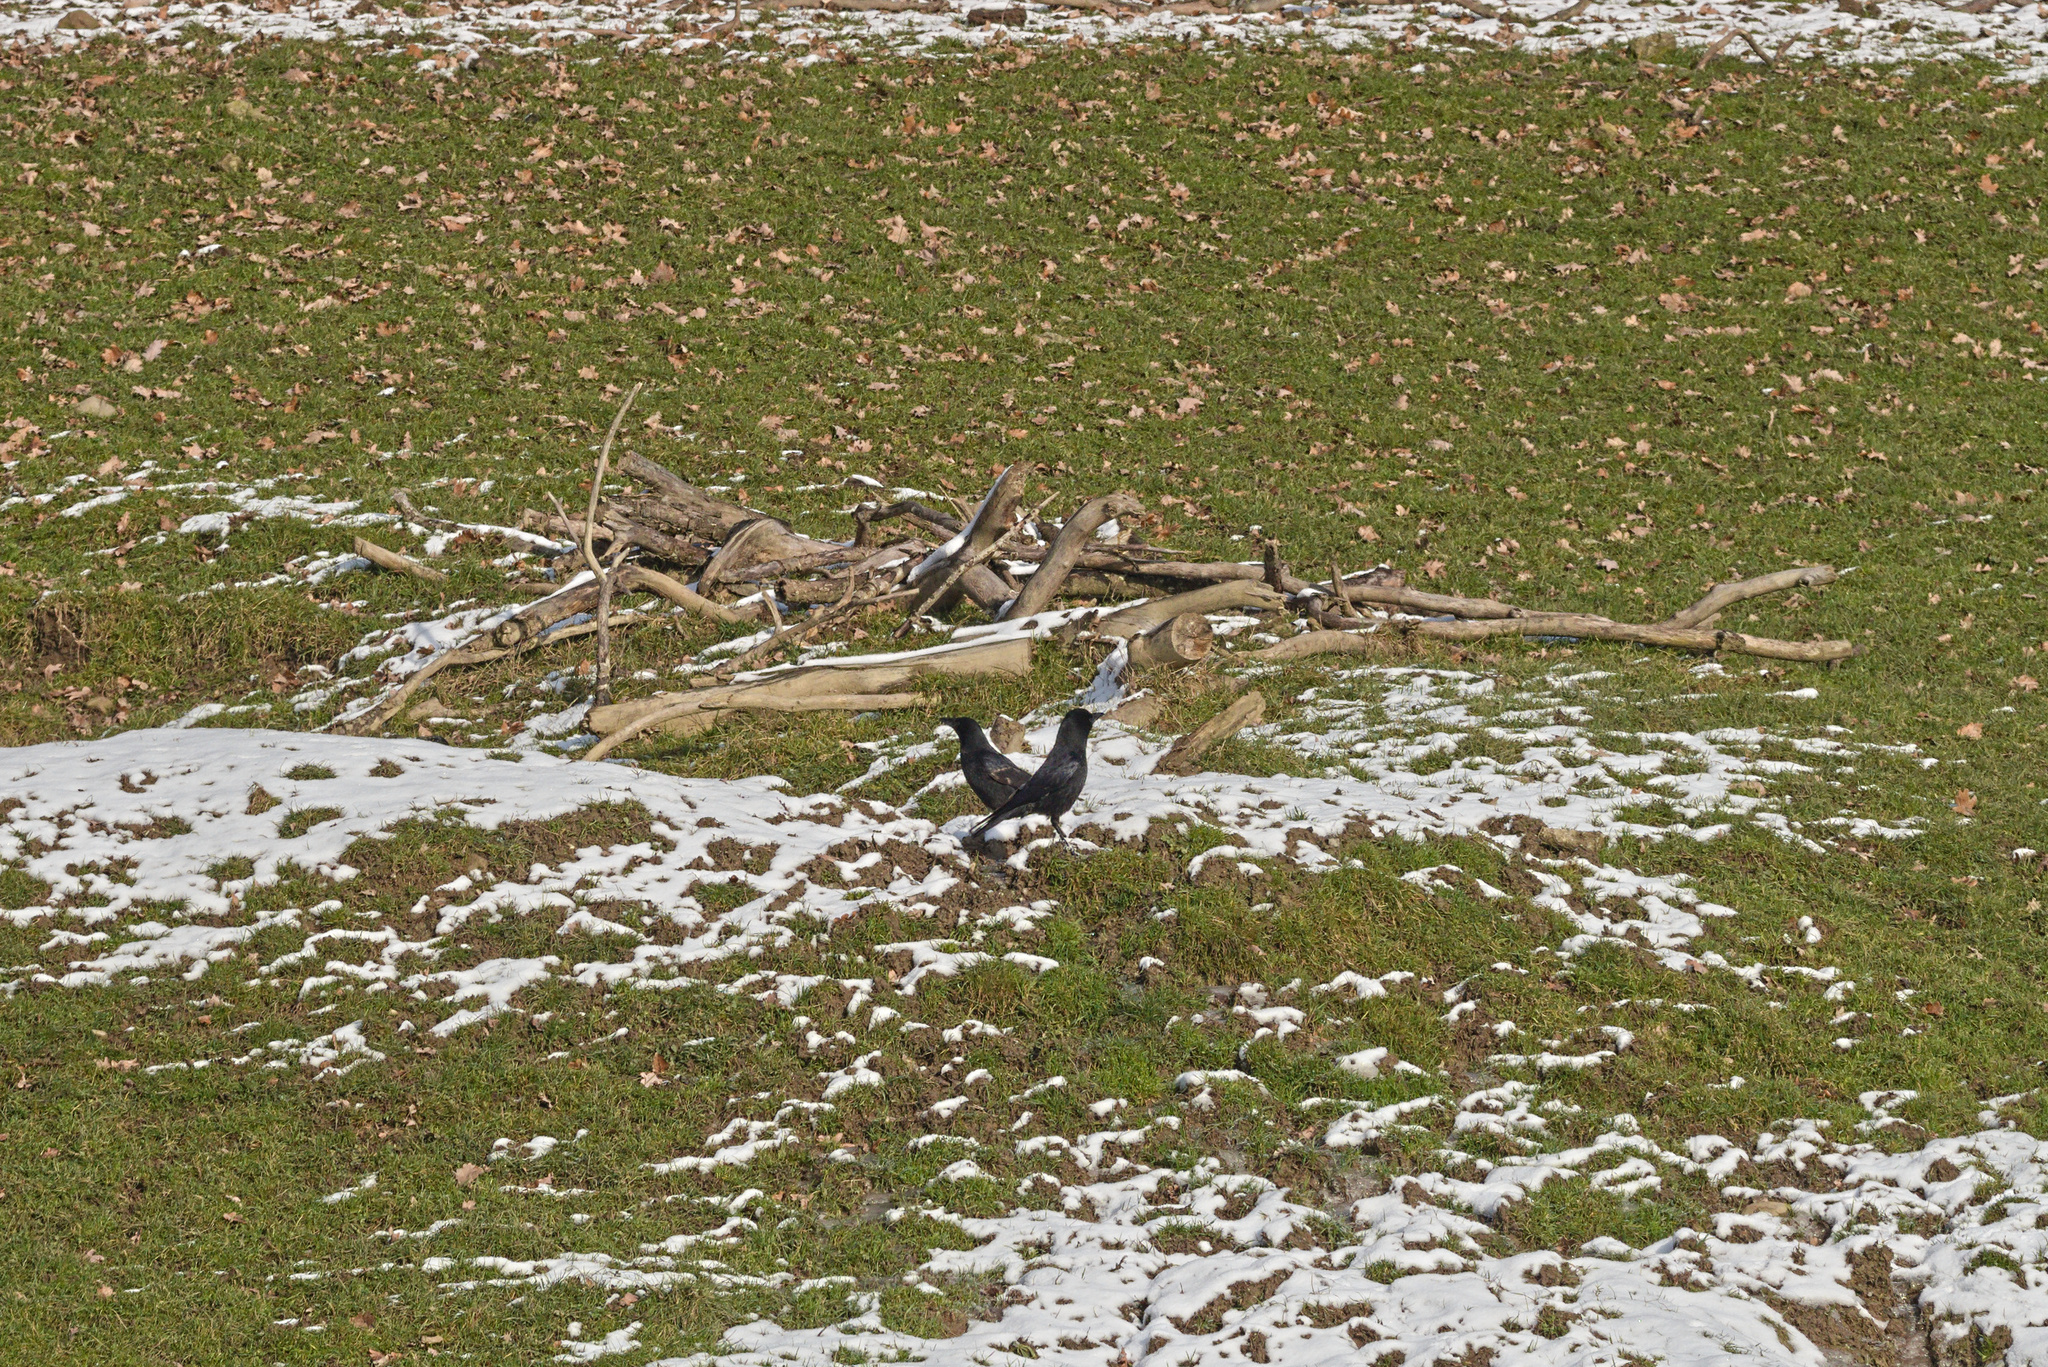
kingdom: Animalia
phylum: Chordata
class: Aves
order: Passeriformes
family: Corvidae
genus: Corvus
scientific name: Corvus corone
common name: Carrion crow
